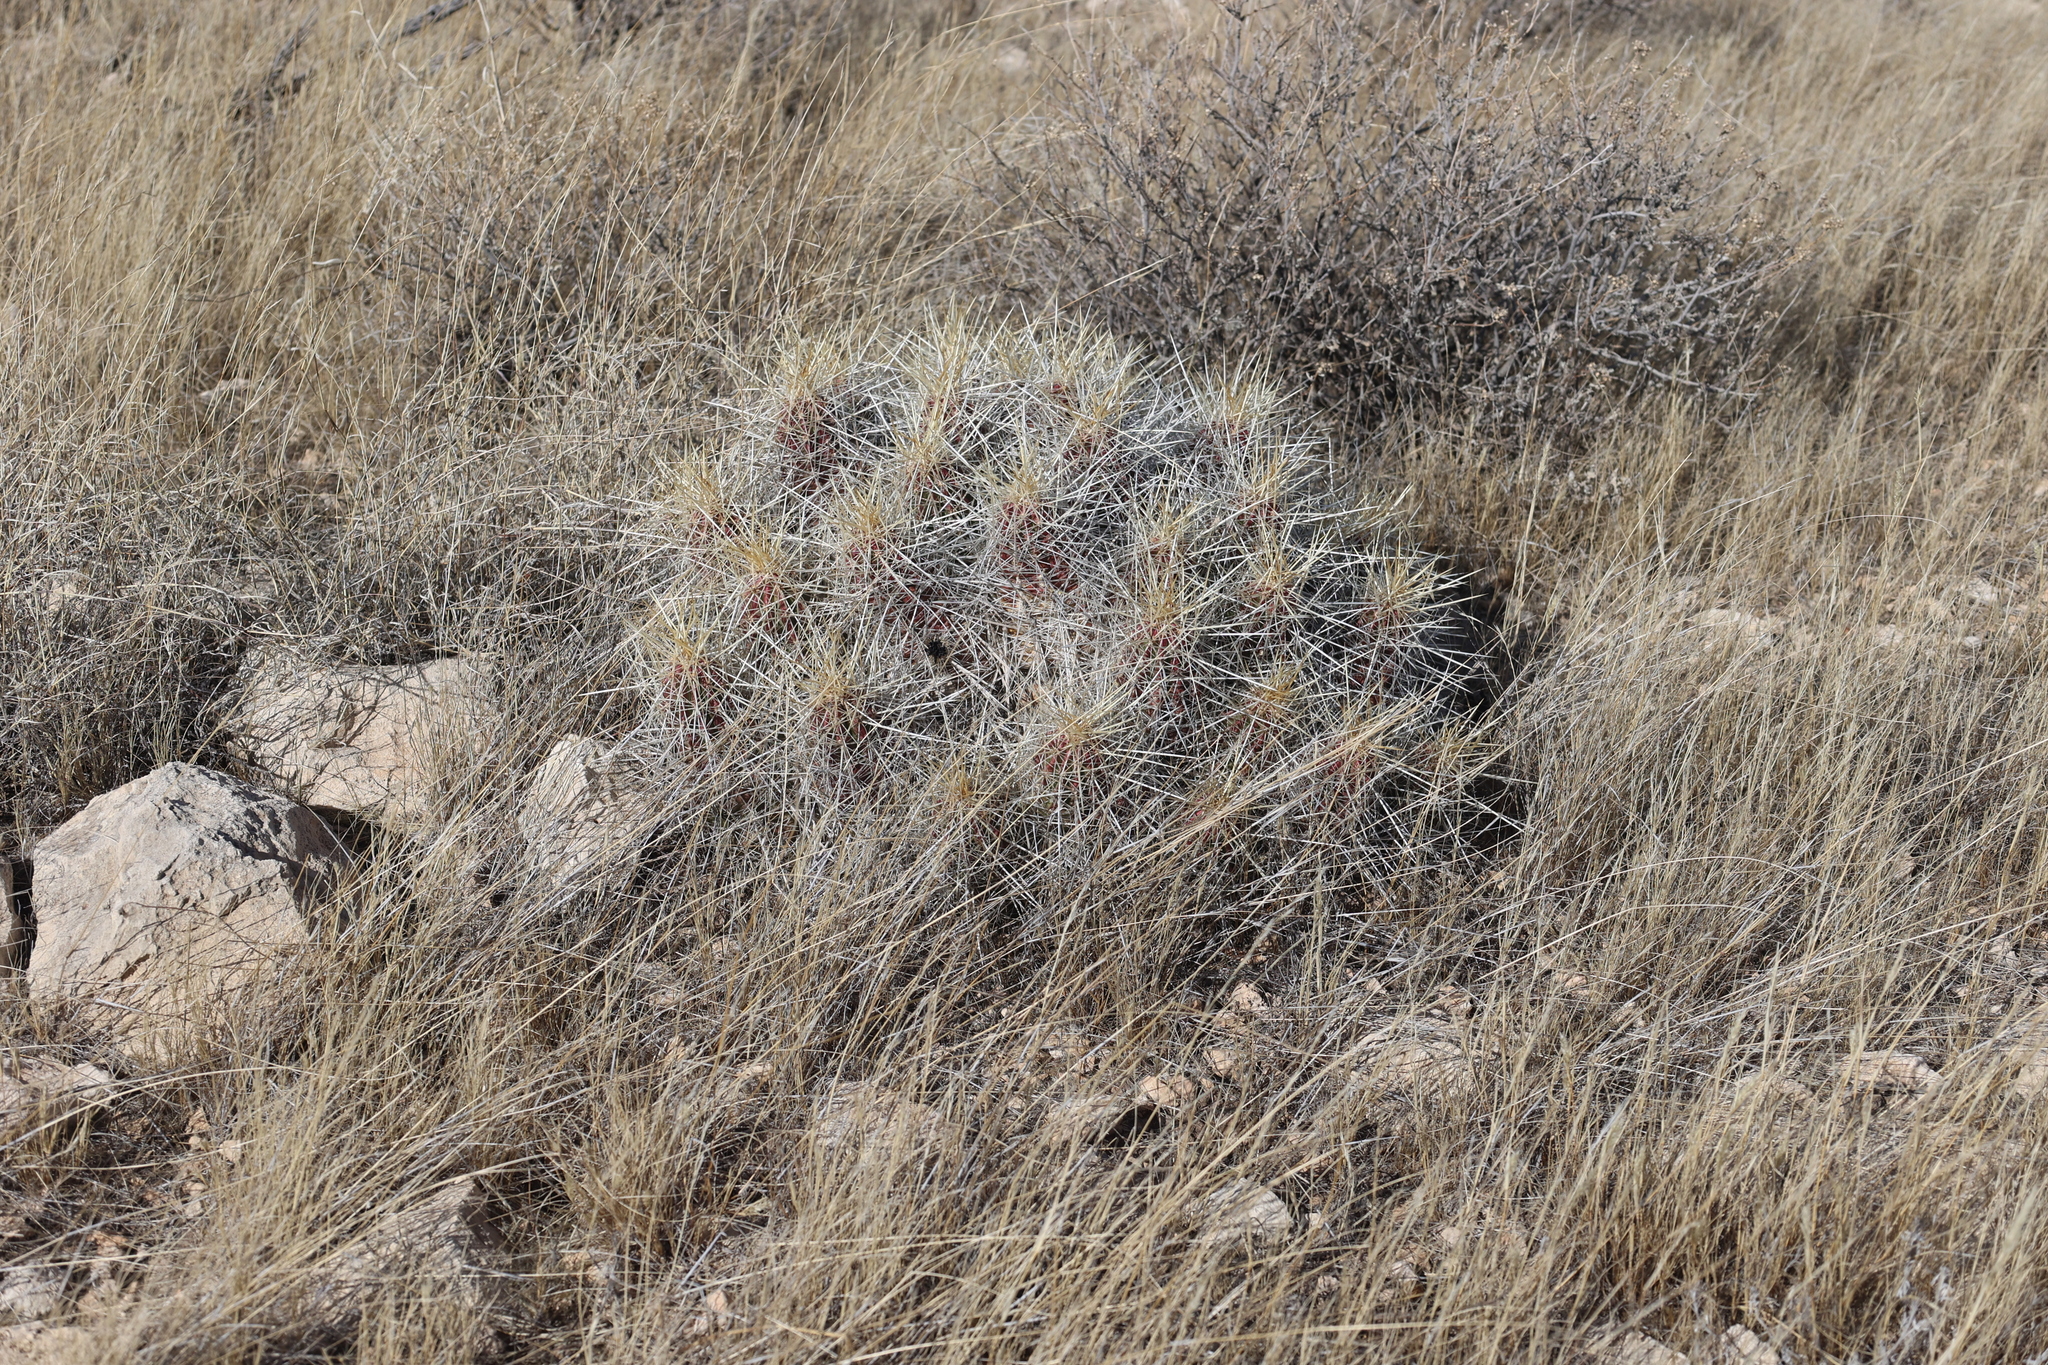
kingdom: Plantae
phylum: Tracheophyta
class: Magnoliopsida
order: Caryophyllales
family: Cactaceae
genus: Echinocereus
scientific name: Echinocereus stramineus
